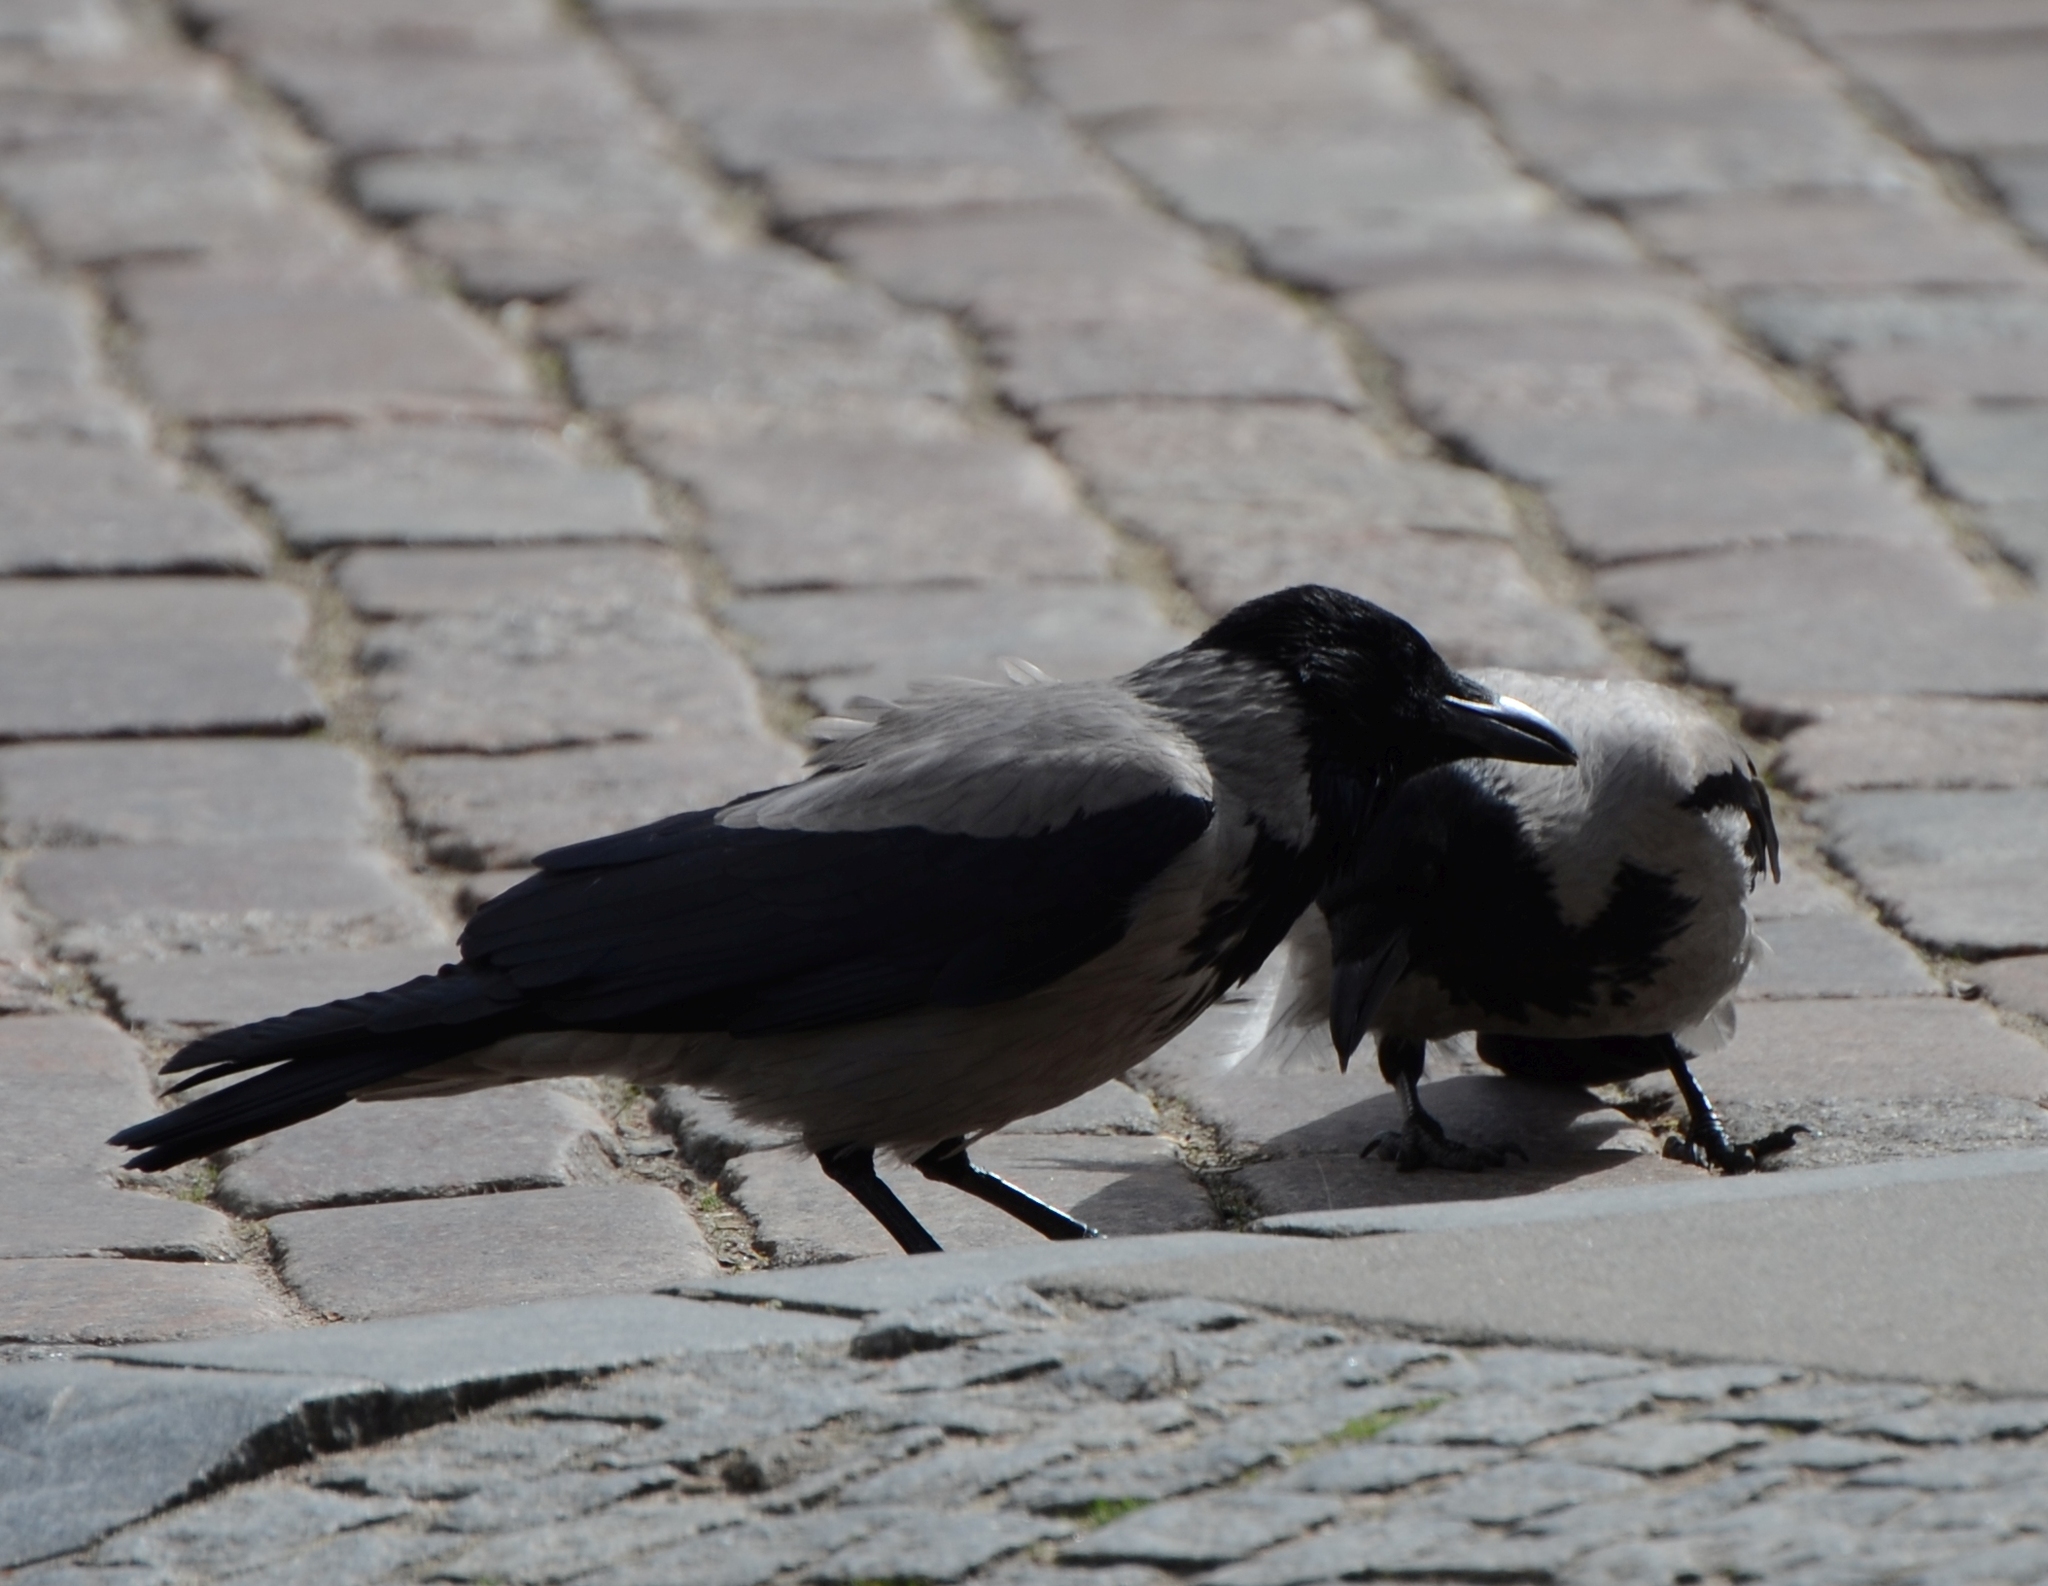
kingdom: Animalia
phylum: Chordata
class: Aves
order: Passeriformes
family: Corvidae
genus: Corvus
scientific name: Corvus cornix
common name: Hooded crow
